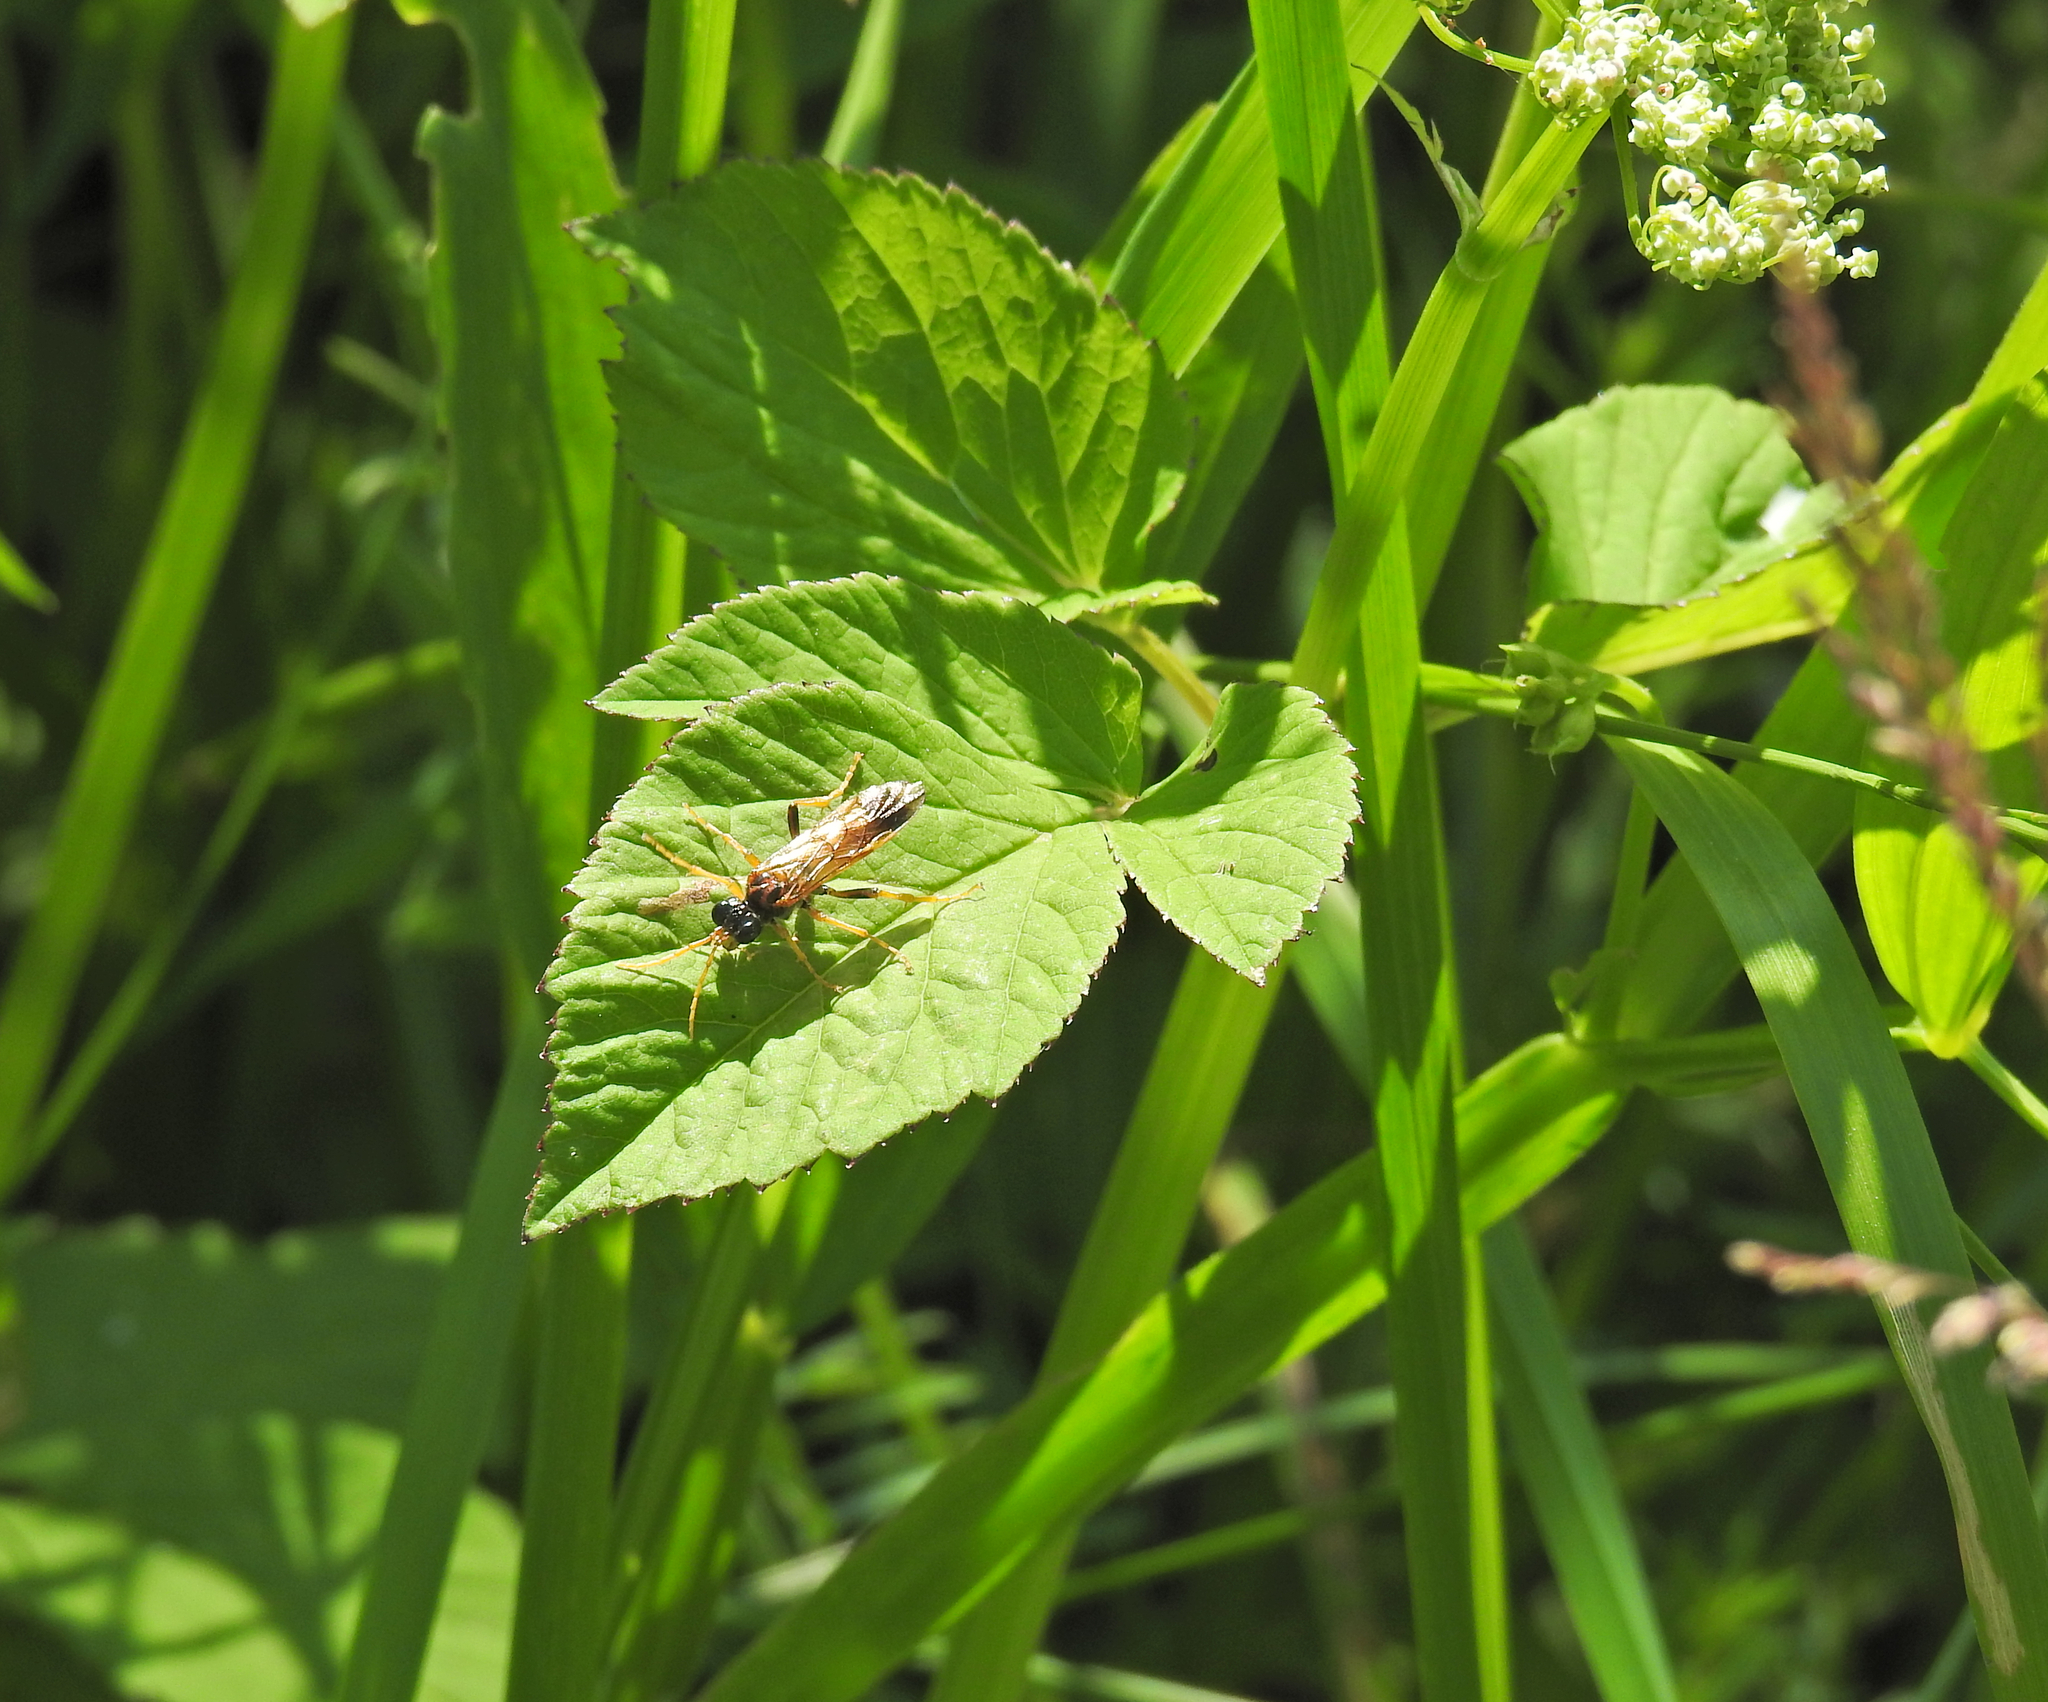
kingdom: Animalia
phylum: Arthropoda
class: Insecta
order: Hymenoptera
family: Tenthredinidae
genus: Tenthredo
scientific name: Tenthredo campestris
